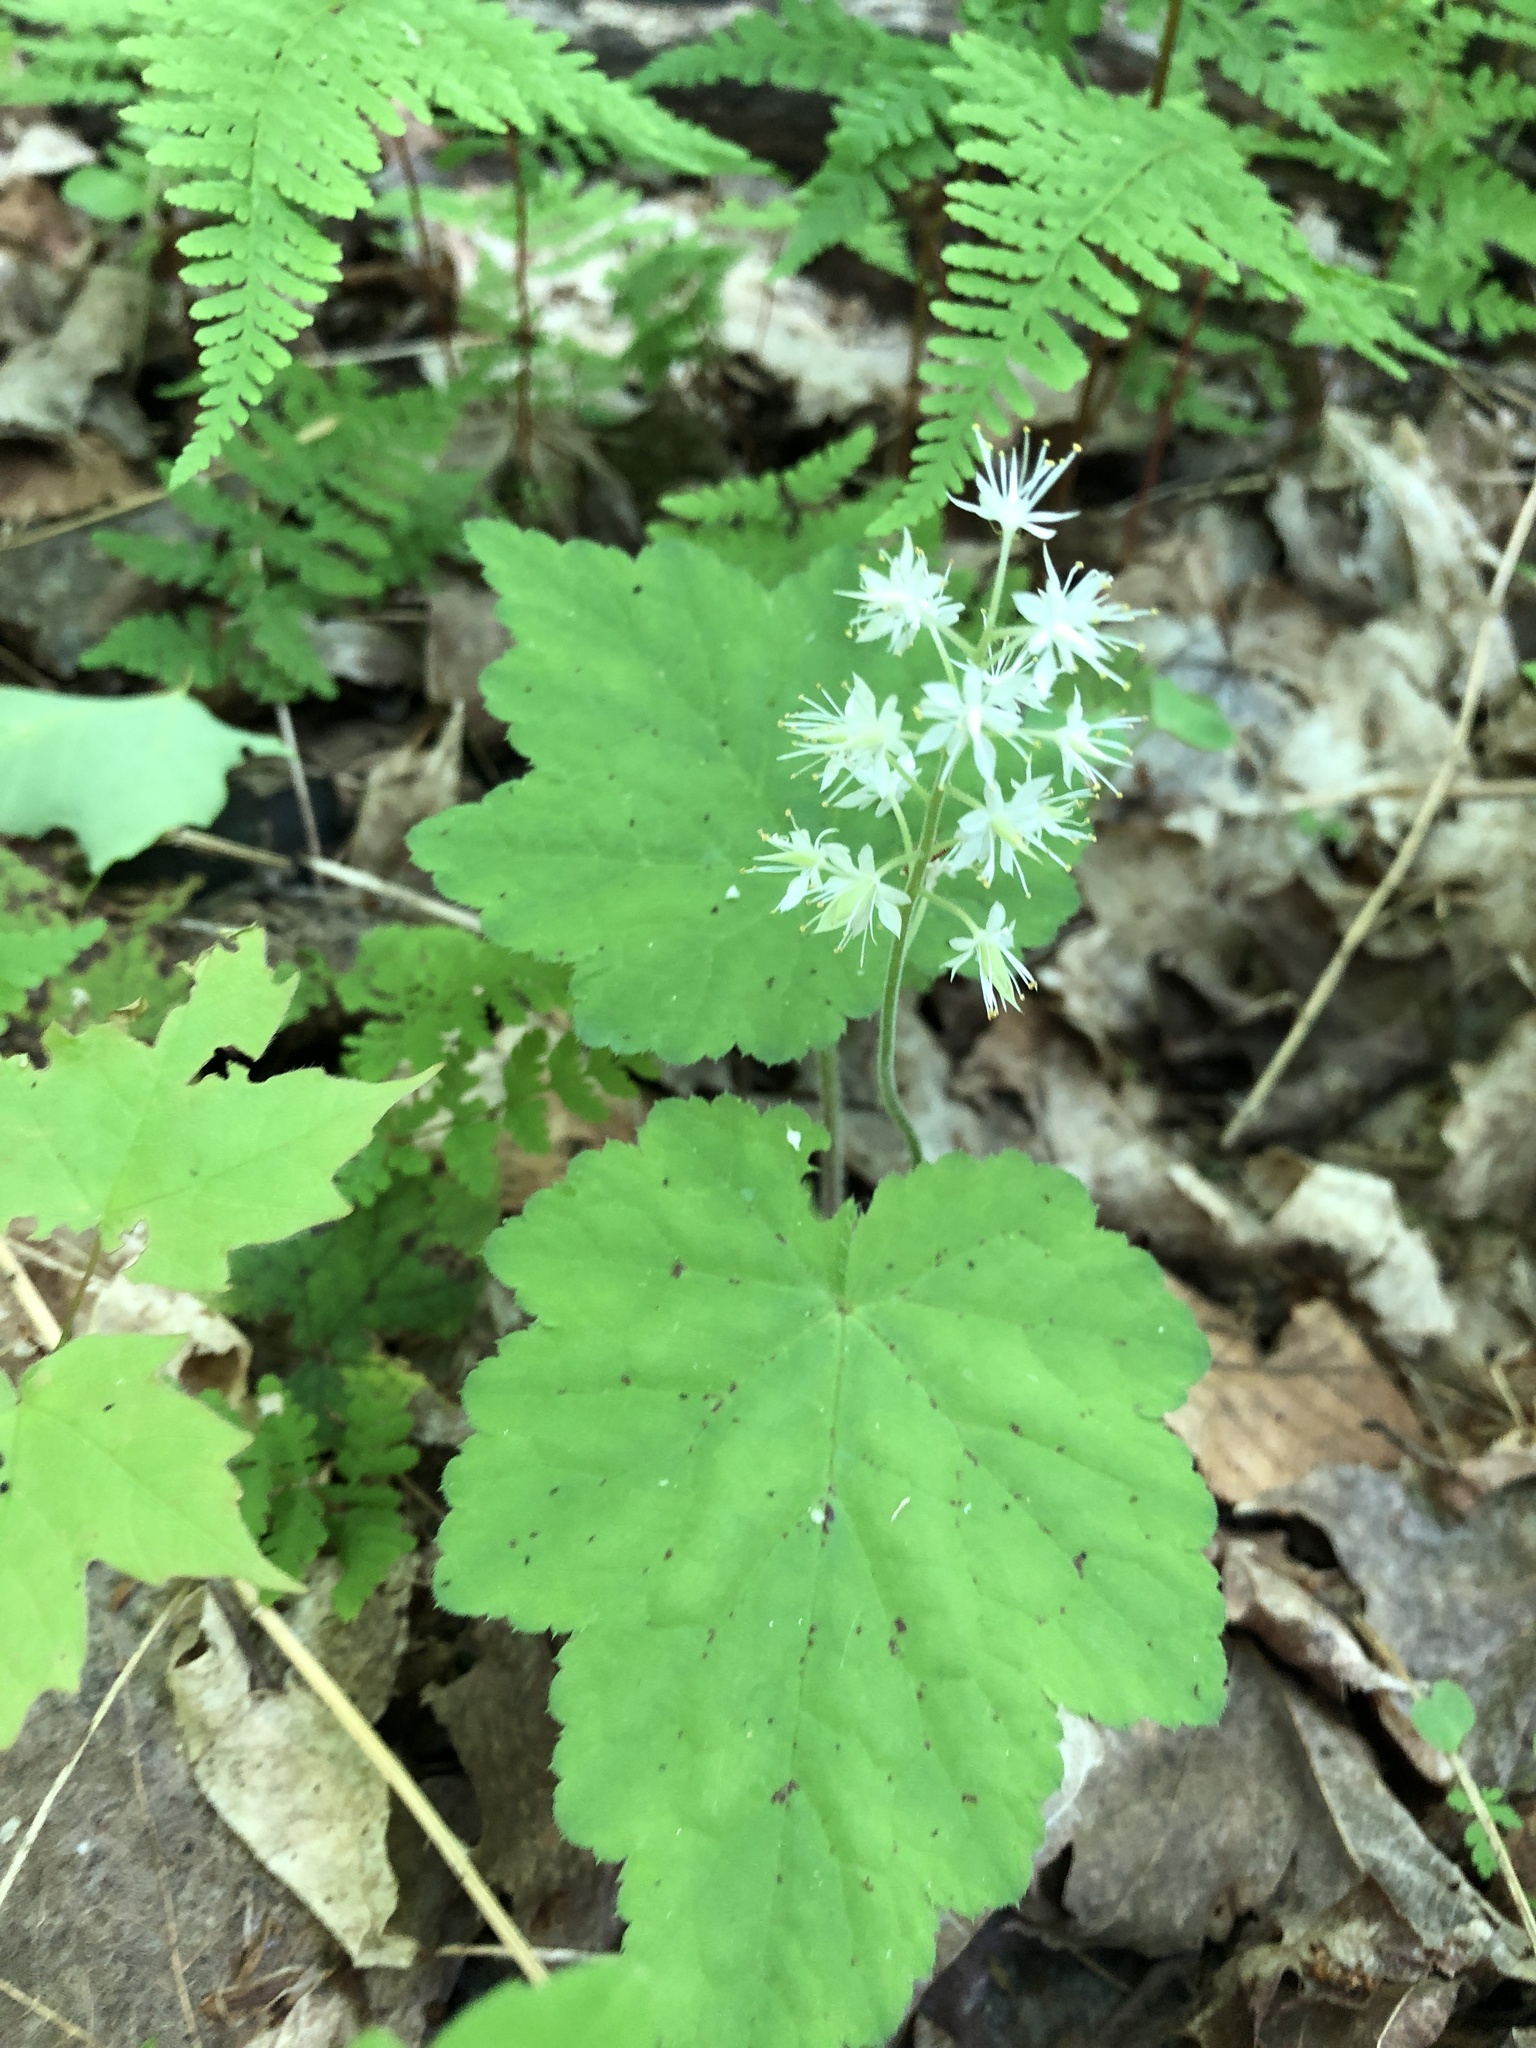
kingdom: Plantae
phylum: Tracheophyta
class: Magnoliopsida
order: Saxifragales
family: Saxifragaceae
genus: Tiarella
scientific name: Tiarella stolonifera
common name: Stoloniferous foamflower
